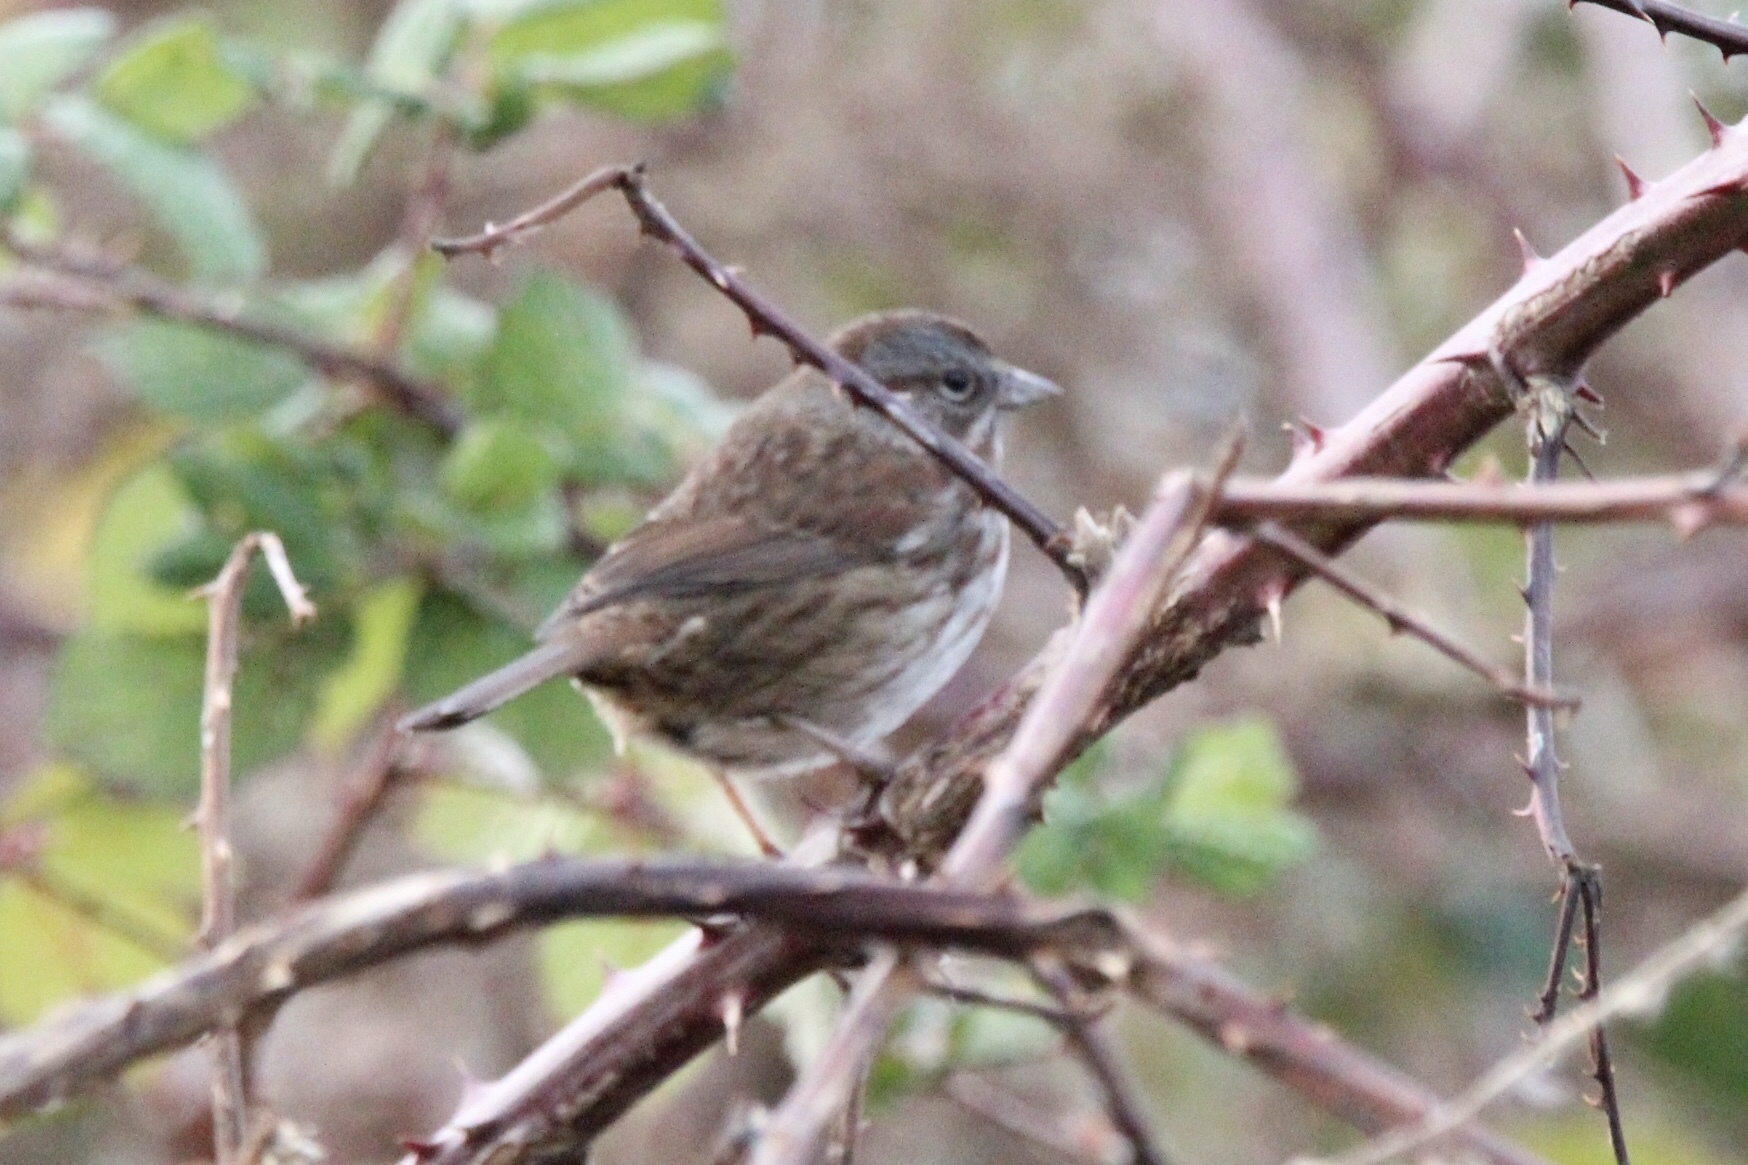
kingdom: Animalia
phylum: Chordata
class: Aves
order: Passeriformes
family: Passerellidae
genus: Melospiza
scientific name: Melospiza melodia
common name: Song sparrow
